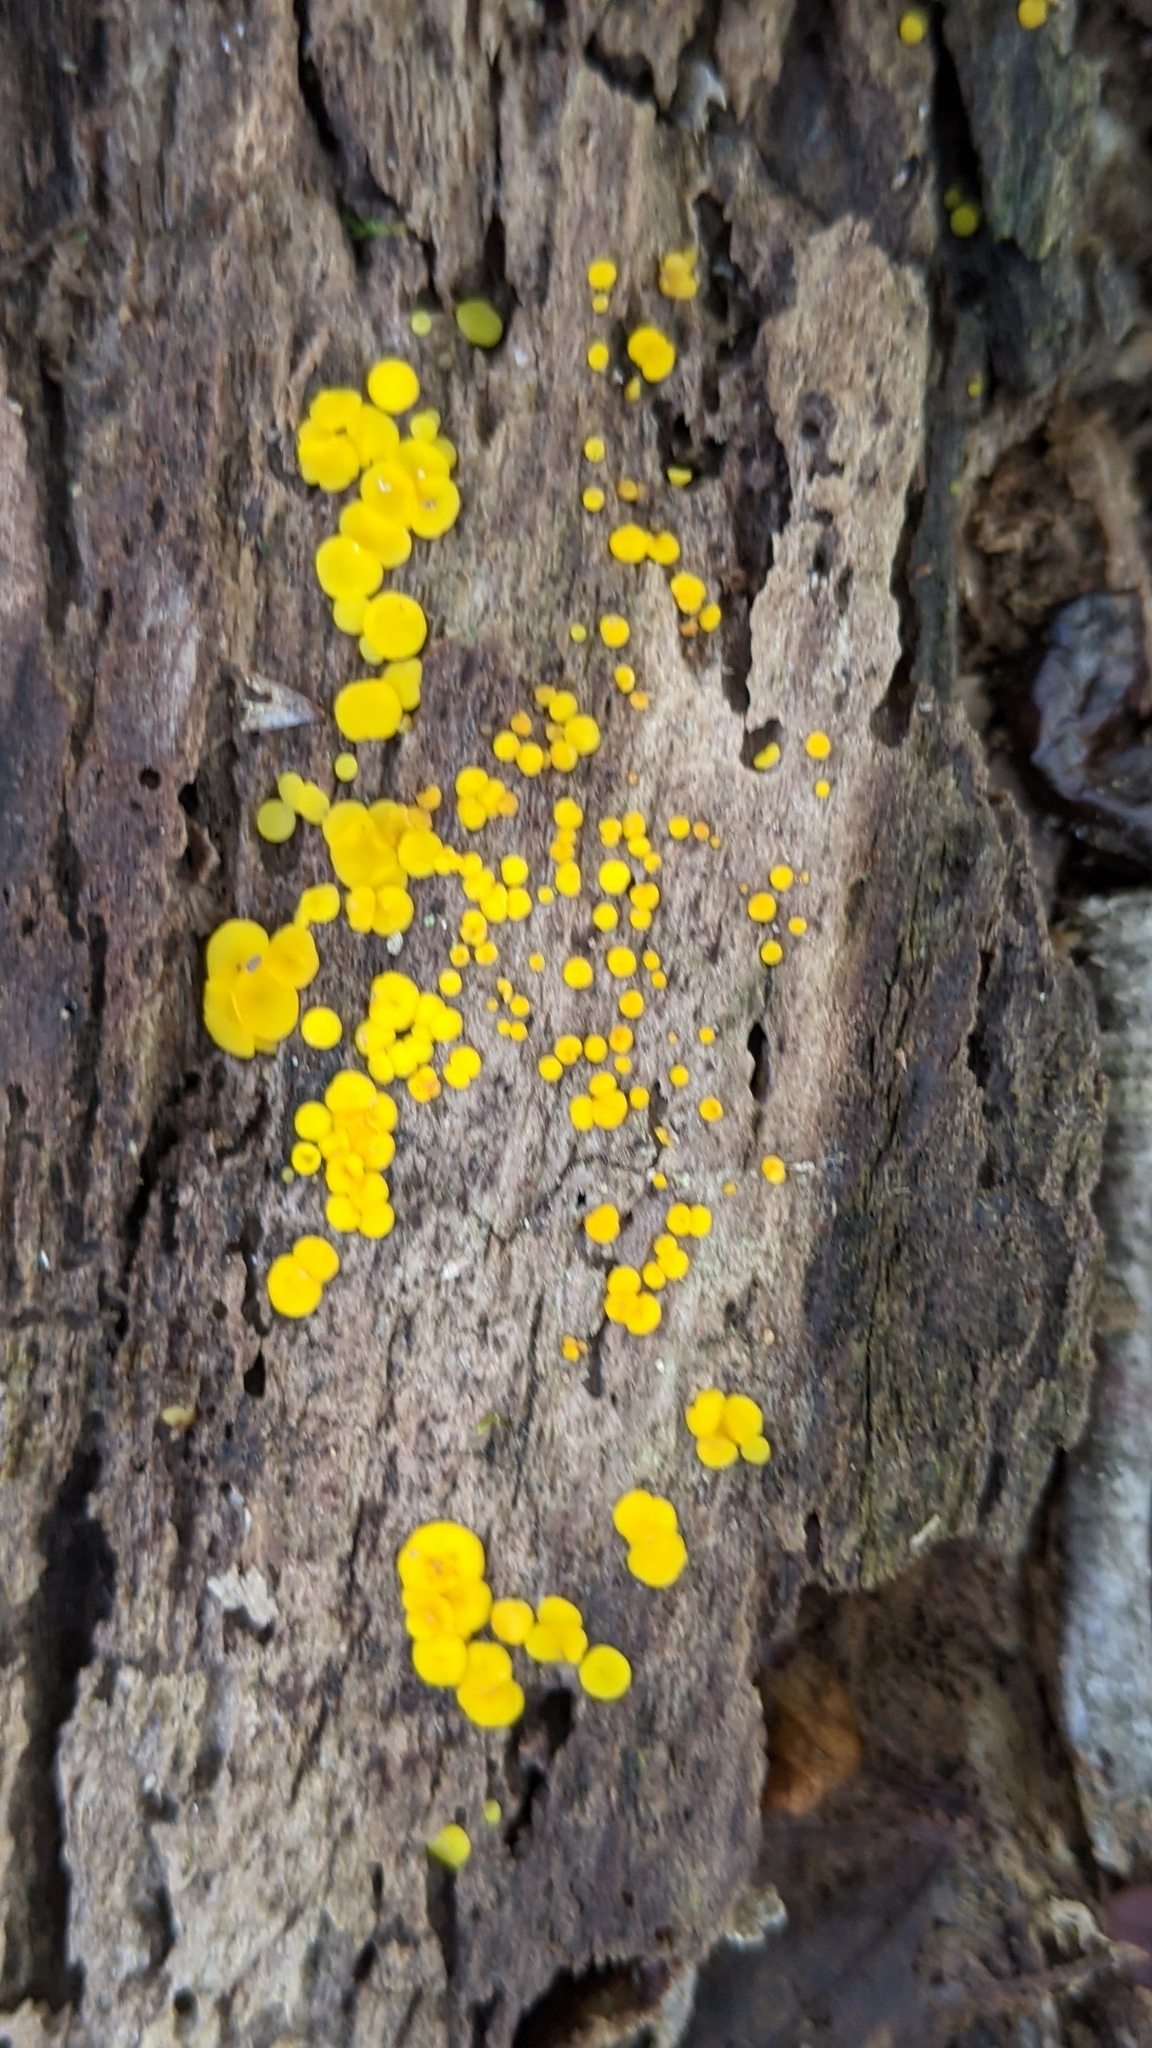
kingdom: Fungi
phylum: Ascomycota
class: Leotiomycetes
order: Helotiales
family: Pezizellaceae
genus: Calycina
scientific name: Calycina citrina
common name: Yellow fairy cups
